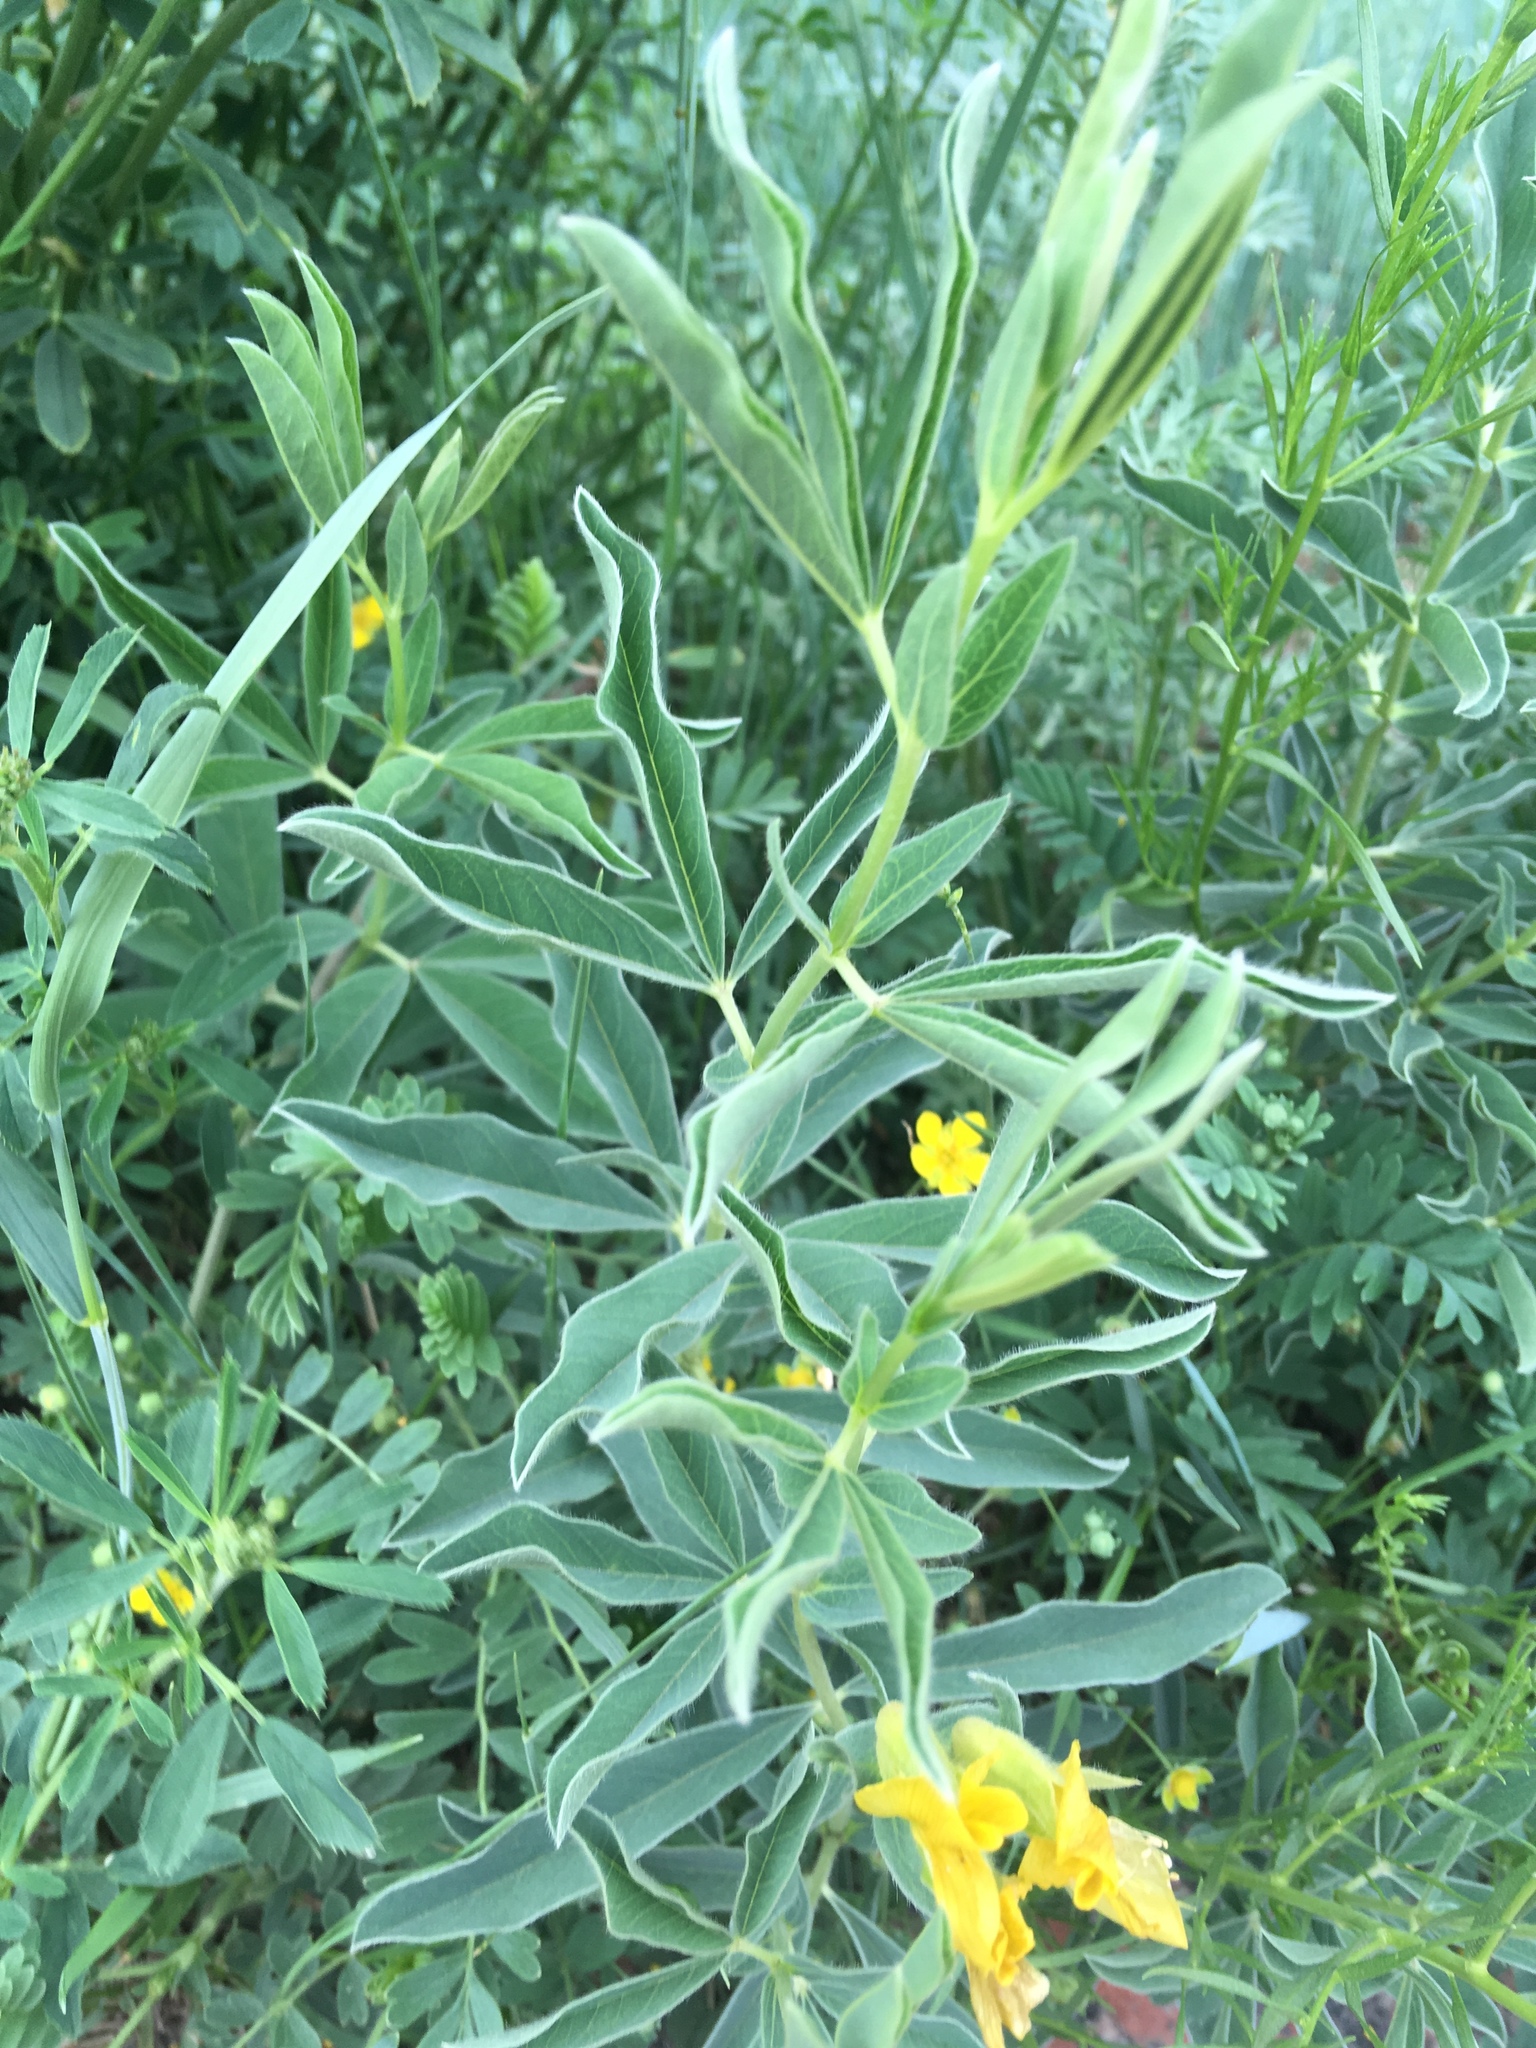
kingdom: Plantae
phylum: Tracheophyta
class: Magnoliopsida
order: Fabales
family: Fabaceae
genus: Thermopsis
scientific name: Thermopsis lanceolata
